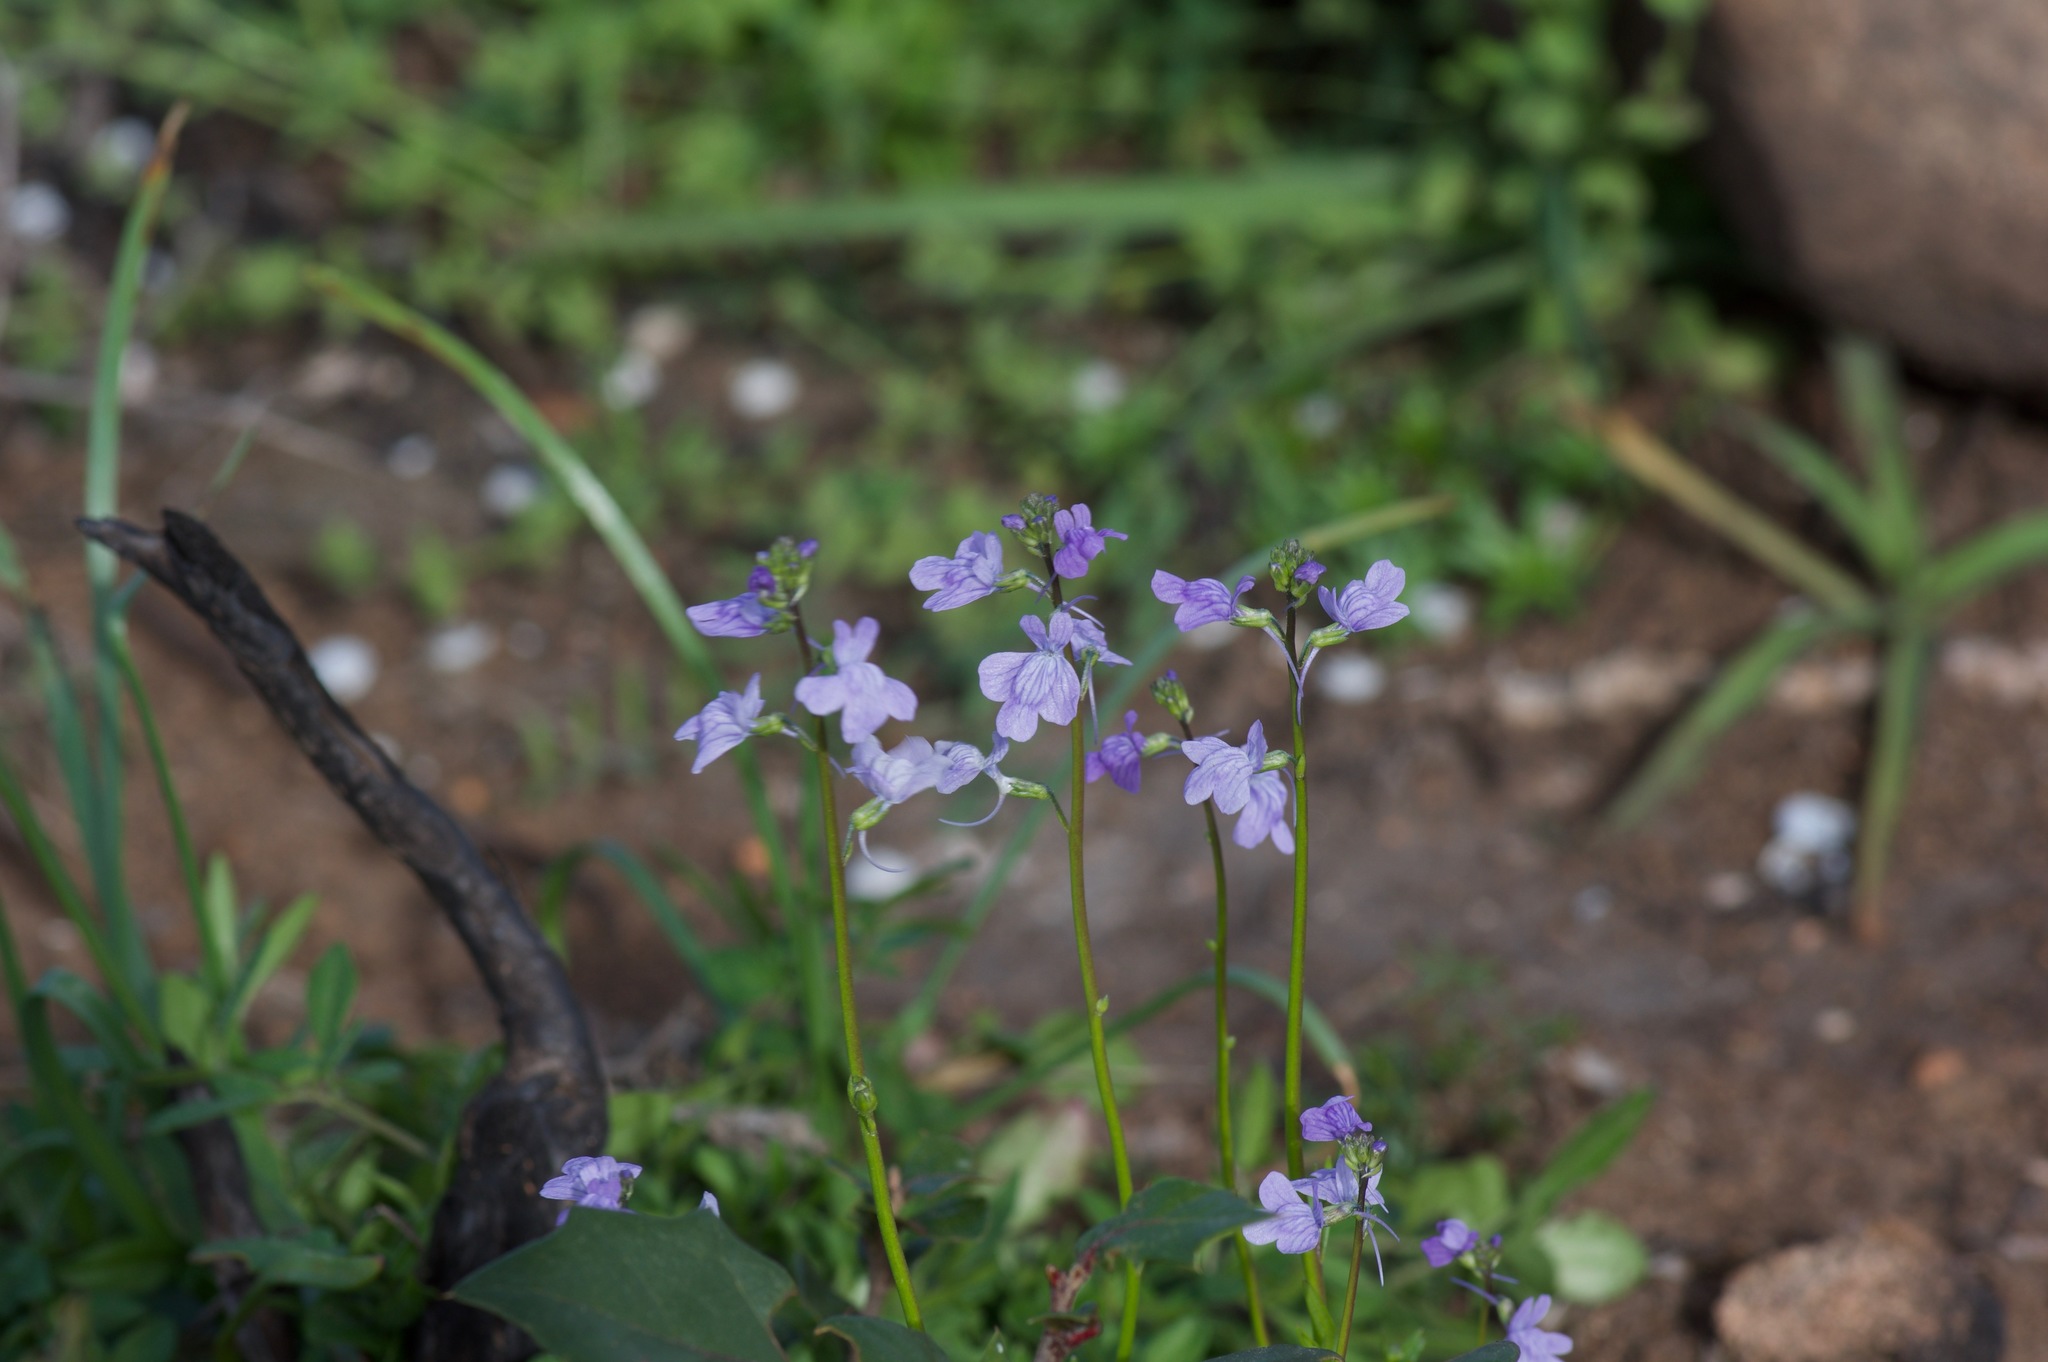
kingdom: Plantae
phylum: Tracheophyta
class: Magnoliopsida
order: Lamiales
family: Plantaginaceae
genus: Nuttallanthus
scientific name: Nuttallanthus texanus
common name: Texas toadflax
